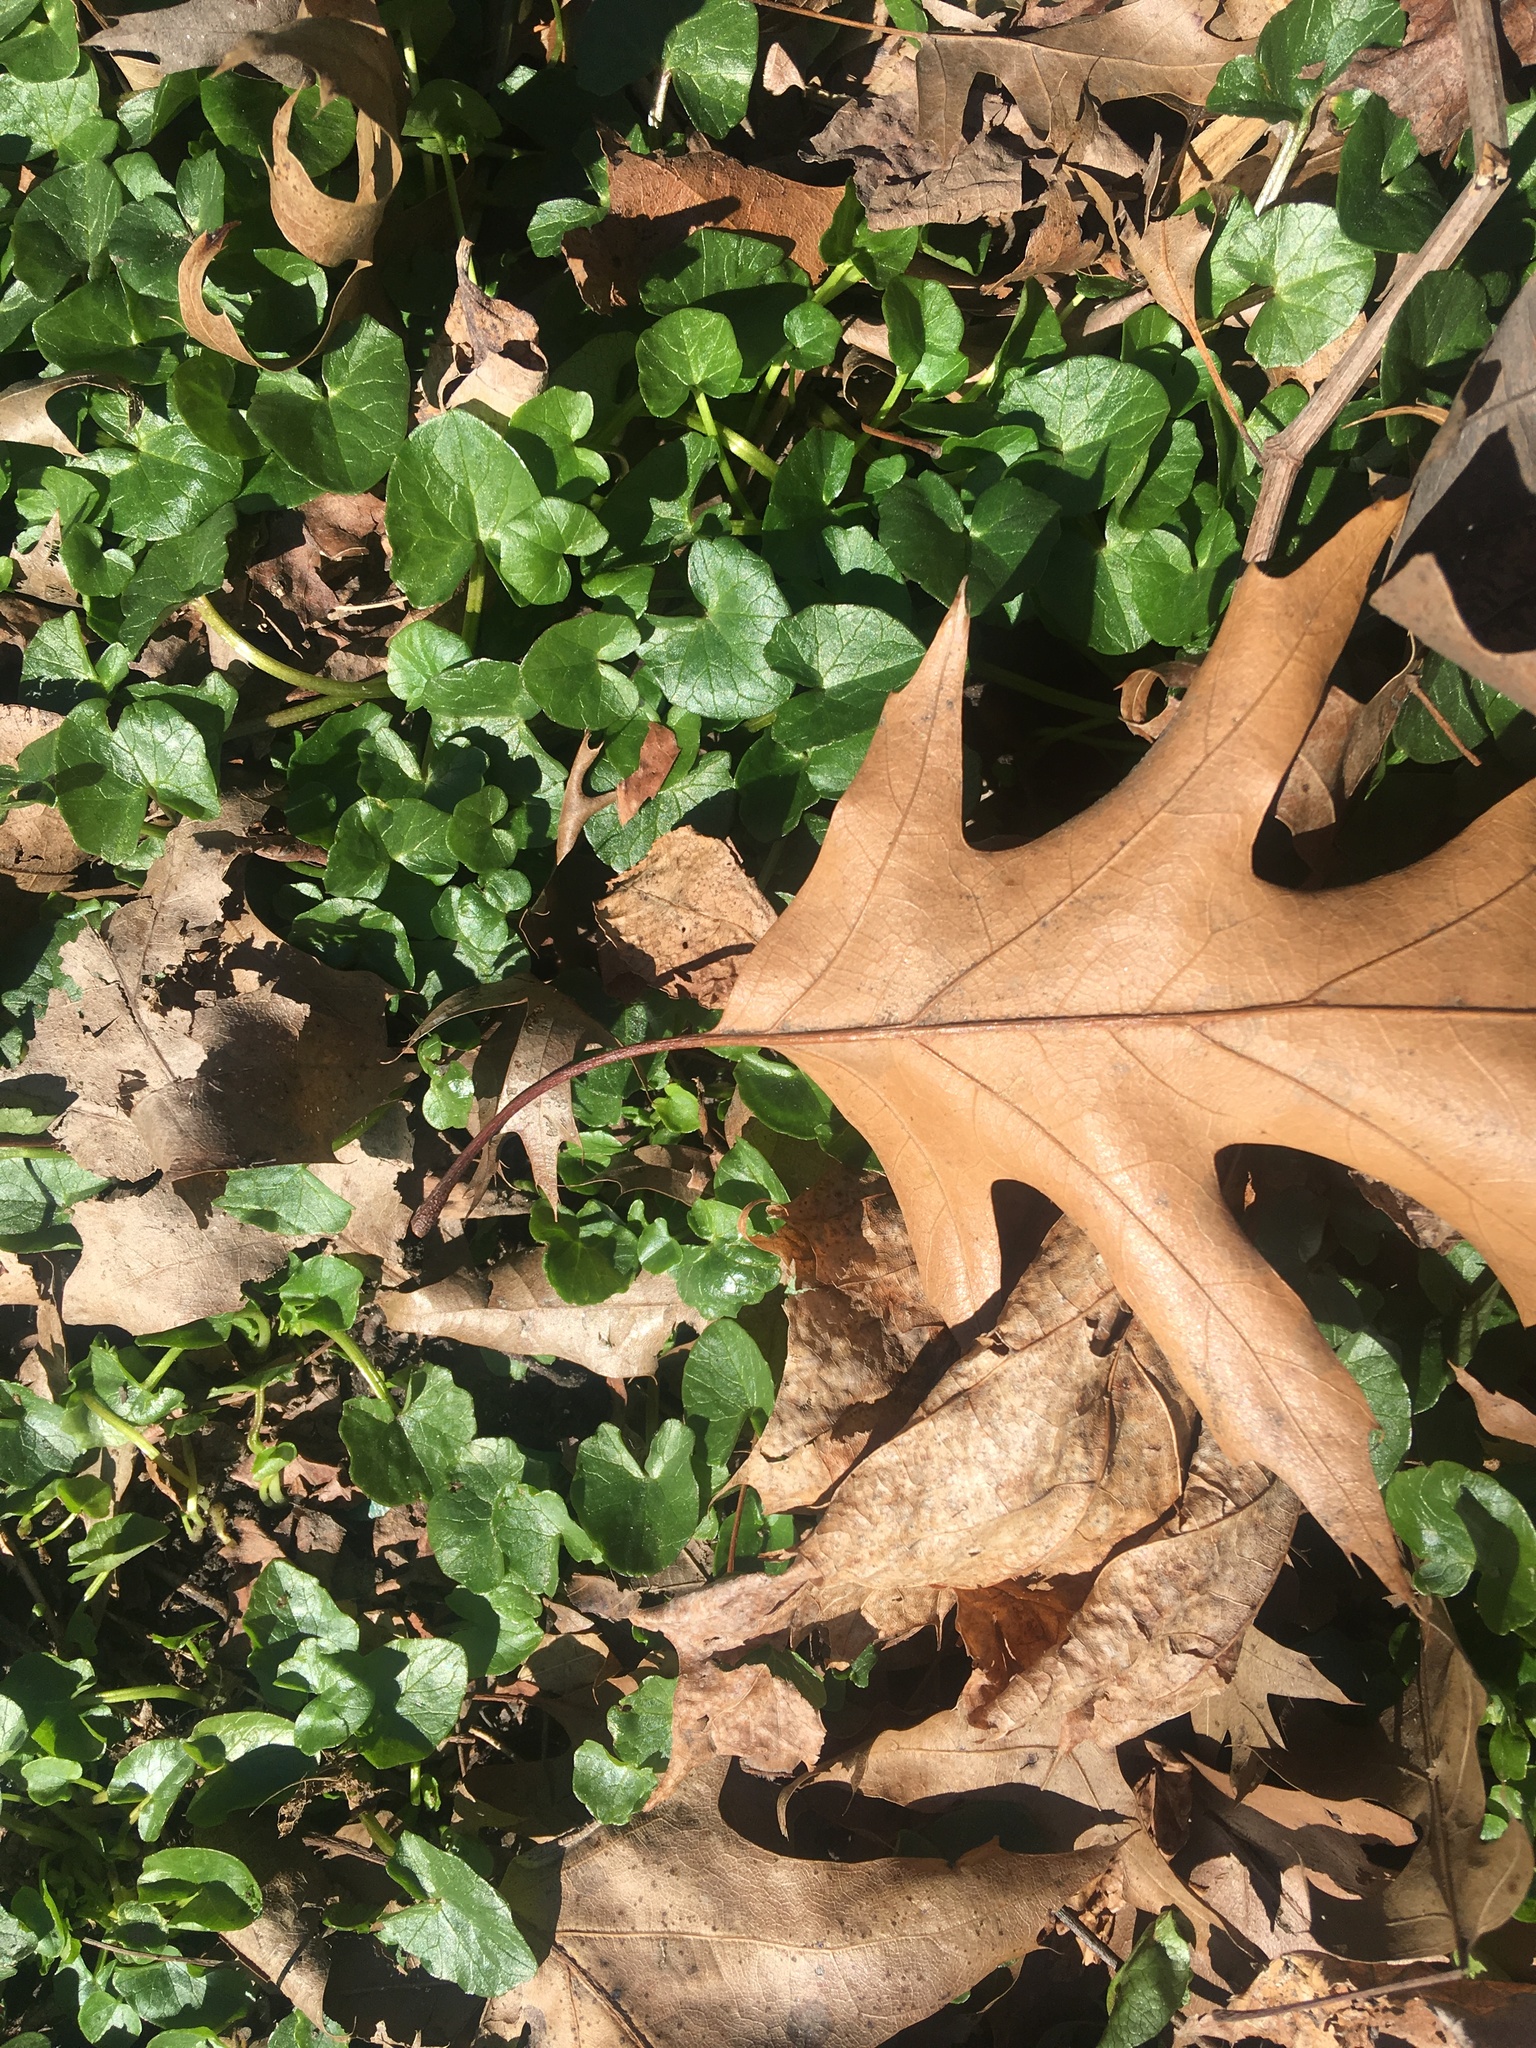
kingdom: Plantae
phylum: Tracheophyta
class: Magnoliopsida
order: Ranunculales
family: Ranunculaceae
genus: Ficaria
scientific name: Ficaria verna
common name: Lesser celandine
